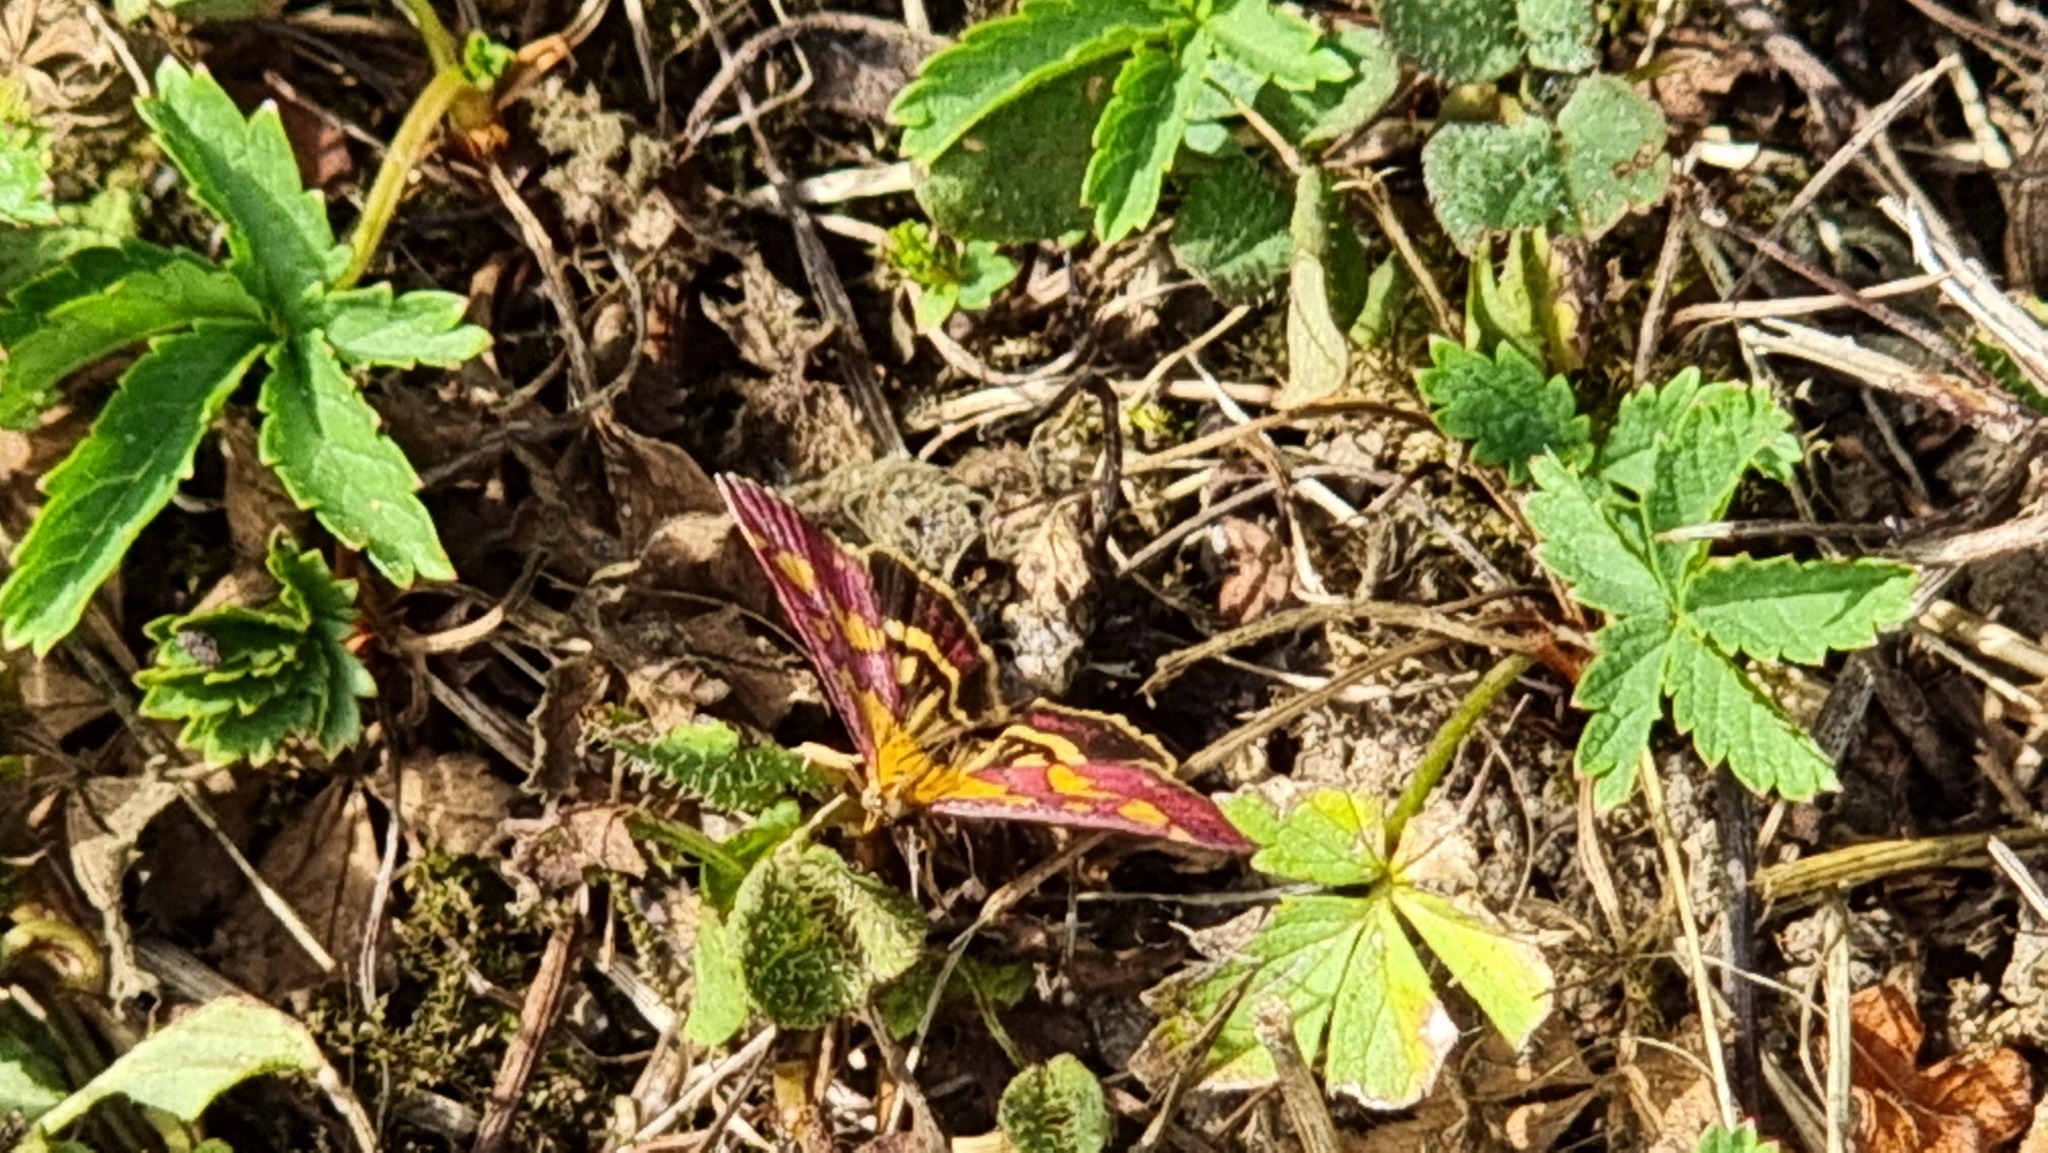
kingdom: Animalia
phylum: Arthropoda
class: Insecta
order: Lepidoptera
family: Crambidae
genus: Pyrausta
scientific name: Pyrausta purpuralis
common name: Common purple & gold
